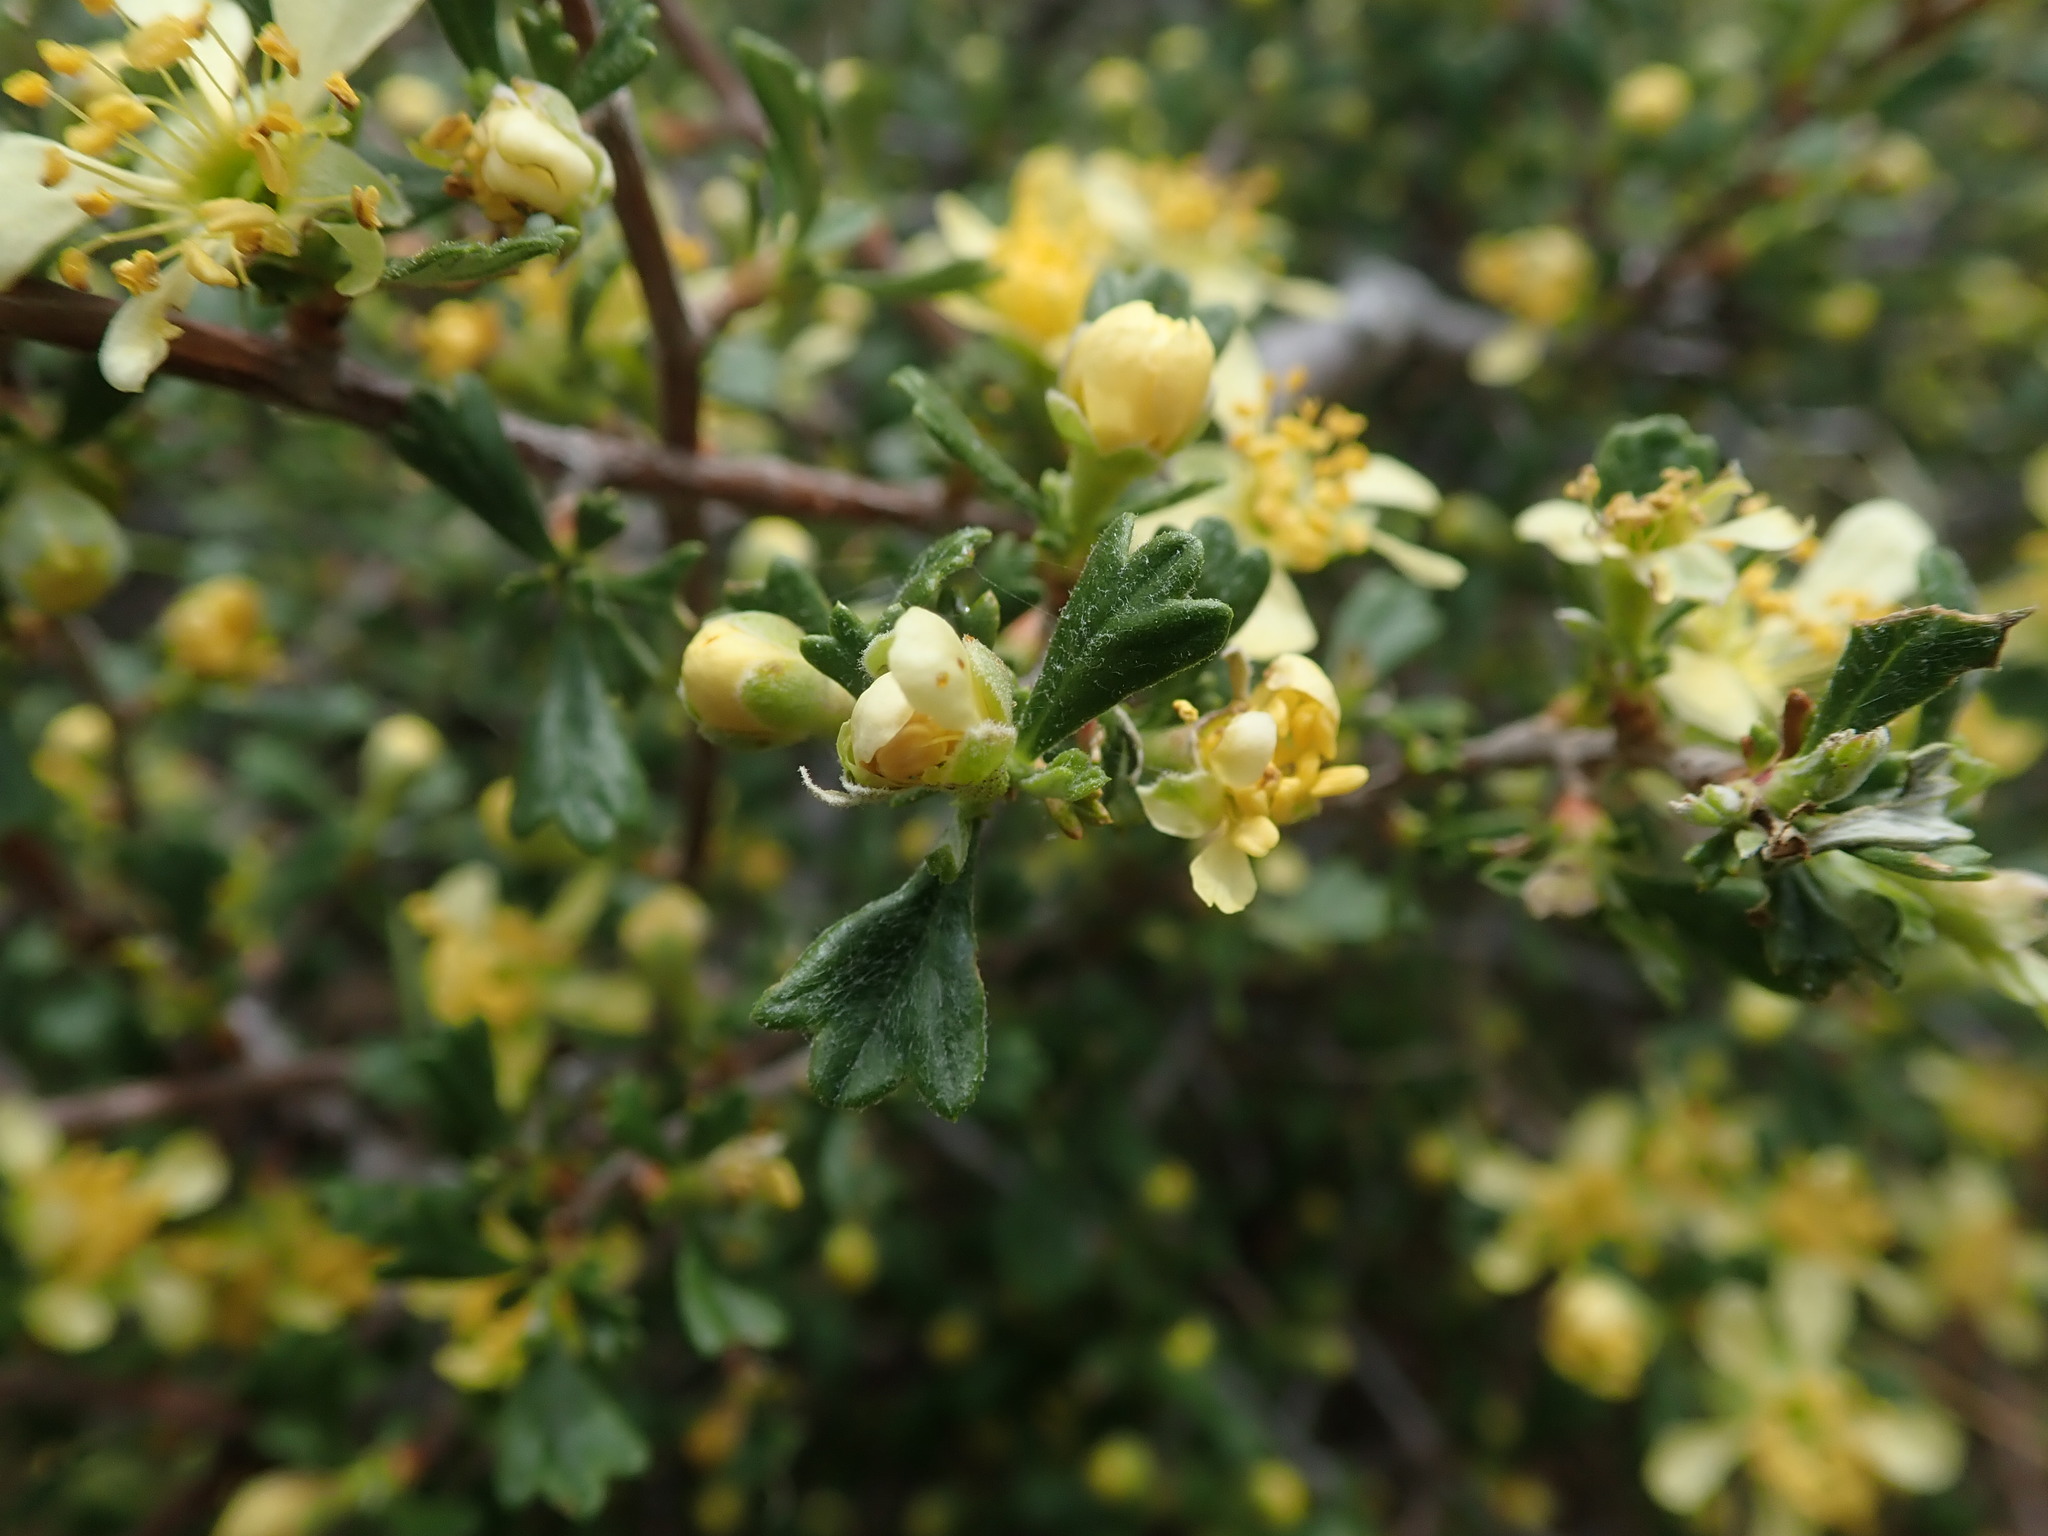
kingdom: Plantae
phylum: Tracheophyta
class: Magnoliopsida
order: Rosales
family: Rosaceae
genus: Purshia
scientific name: Purshia tridentata
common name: Antelope bitterbrush
